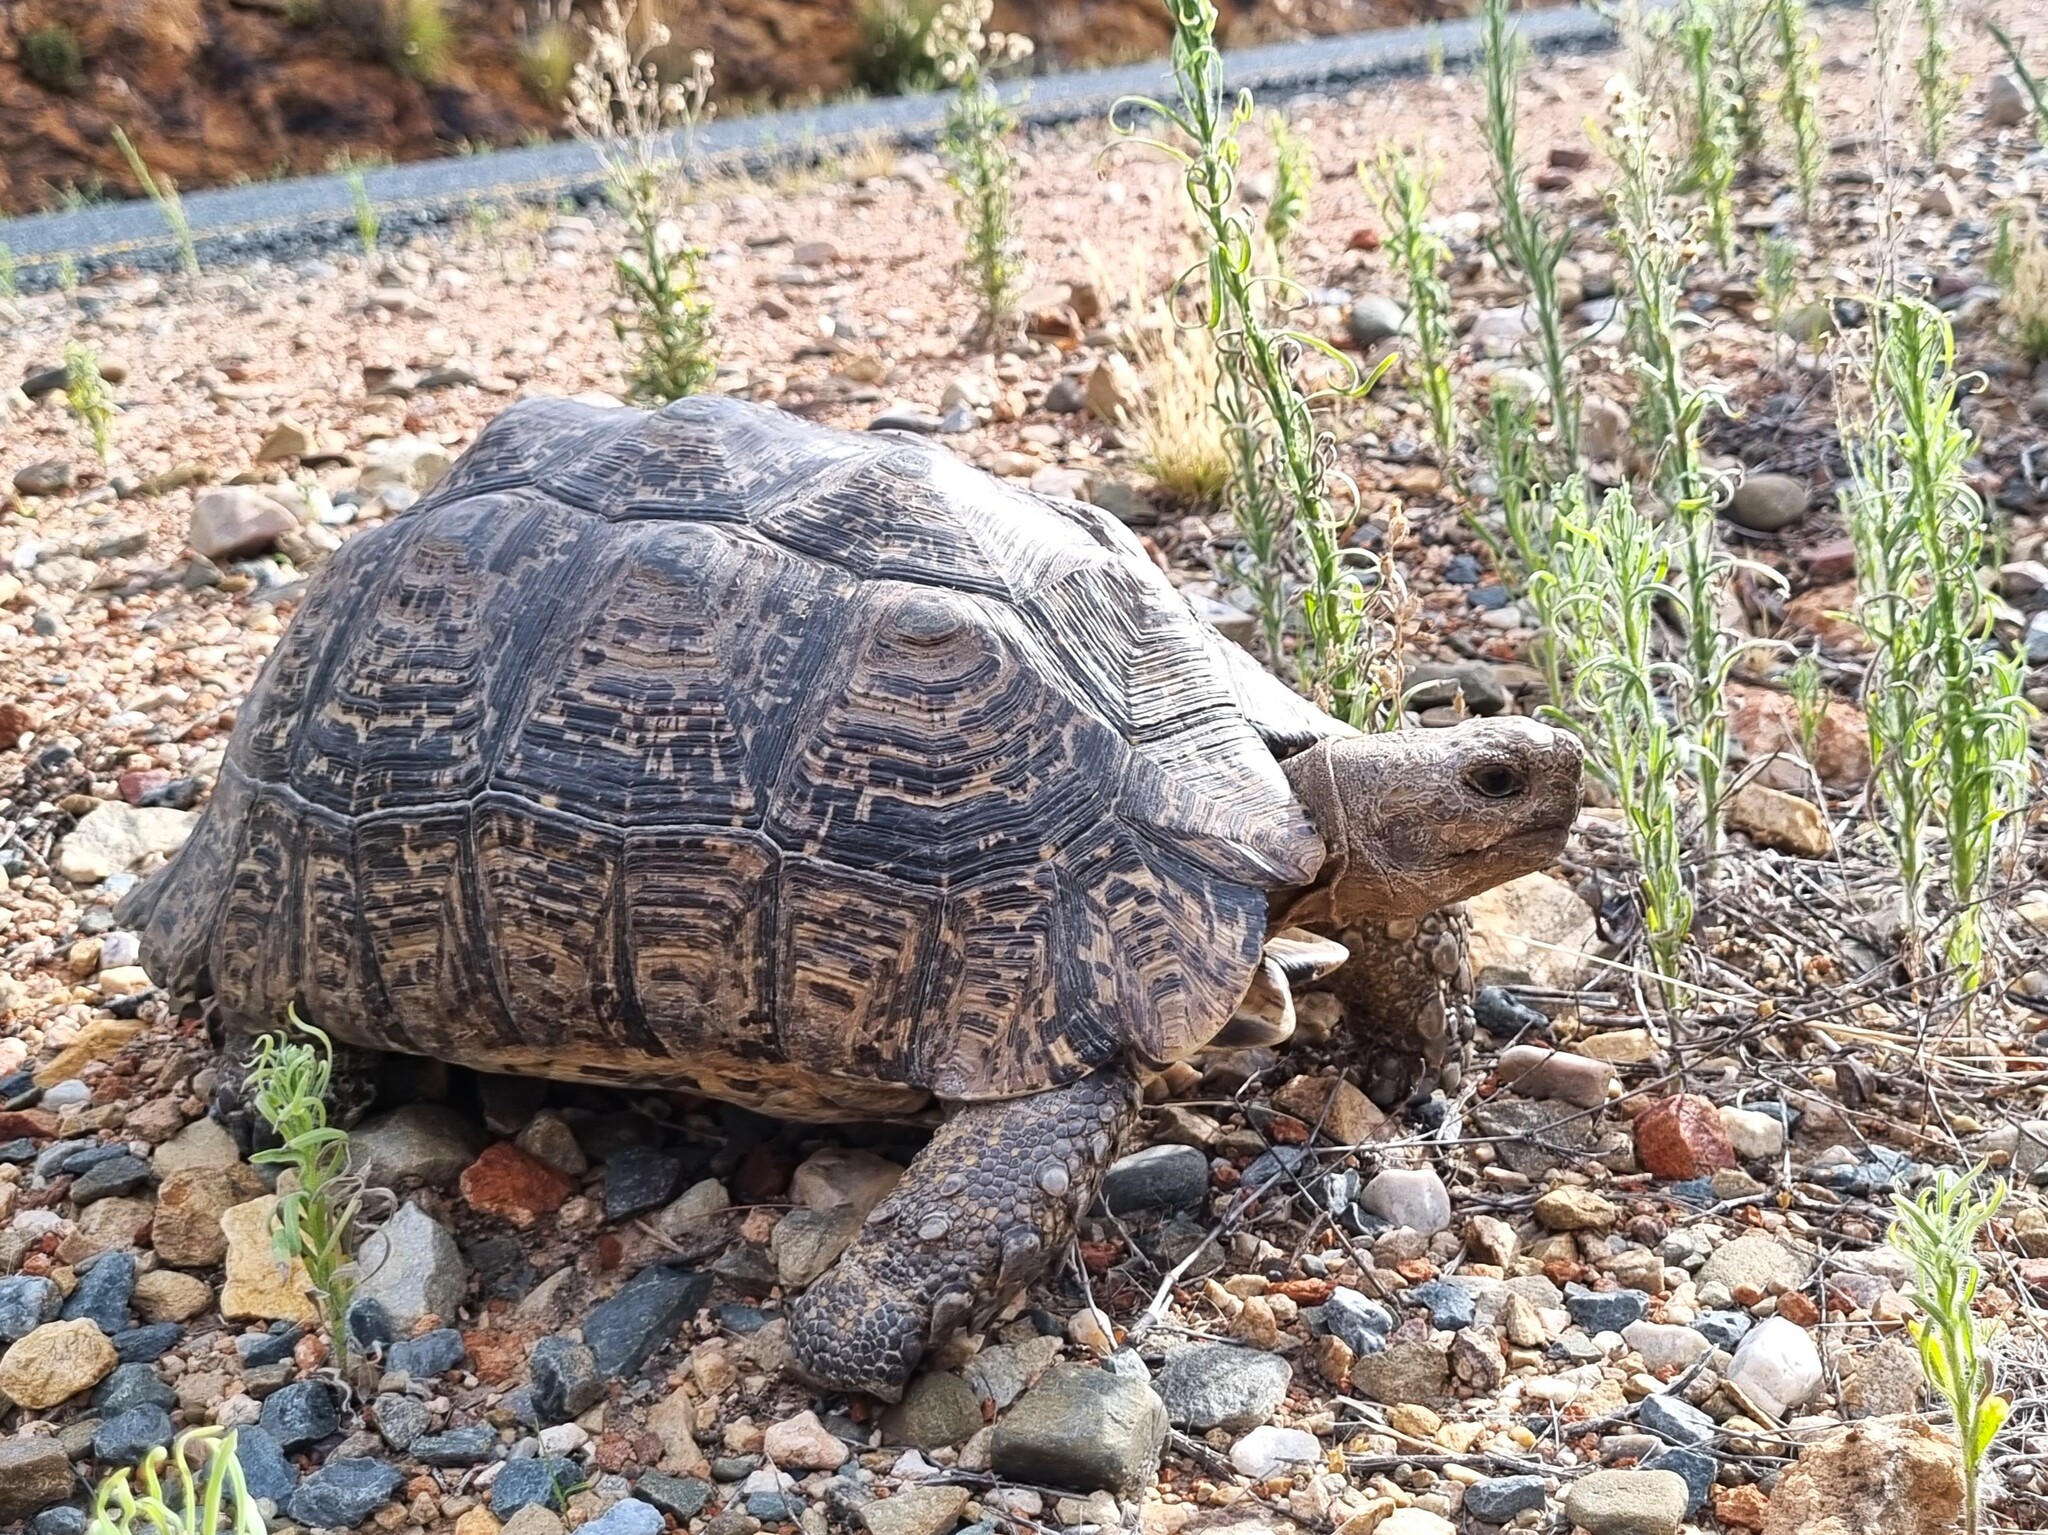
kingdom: Animalia
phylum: Chordata
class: Testudines
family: Testudinidae
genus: Stigmochelys
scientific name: Stigmochelys pardalis
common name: Leopard tortoise
